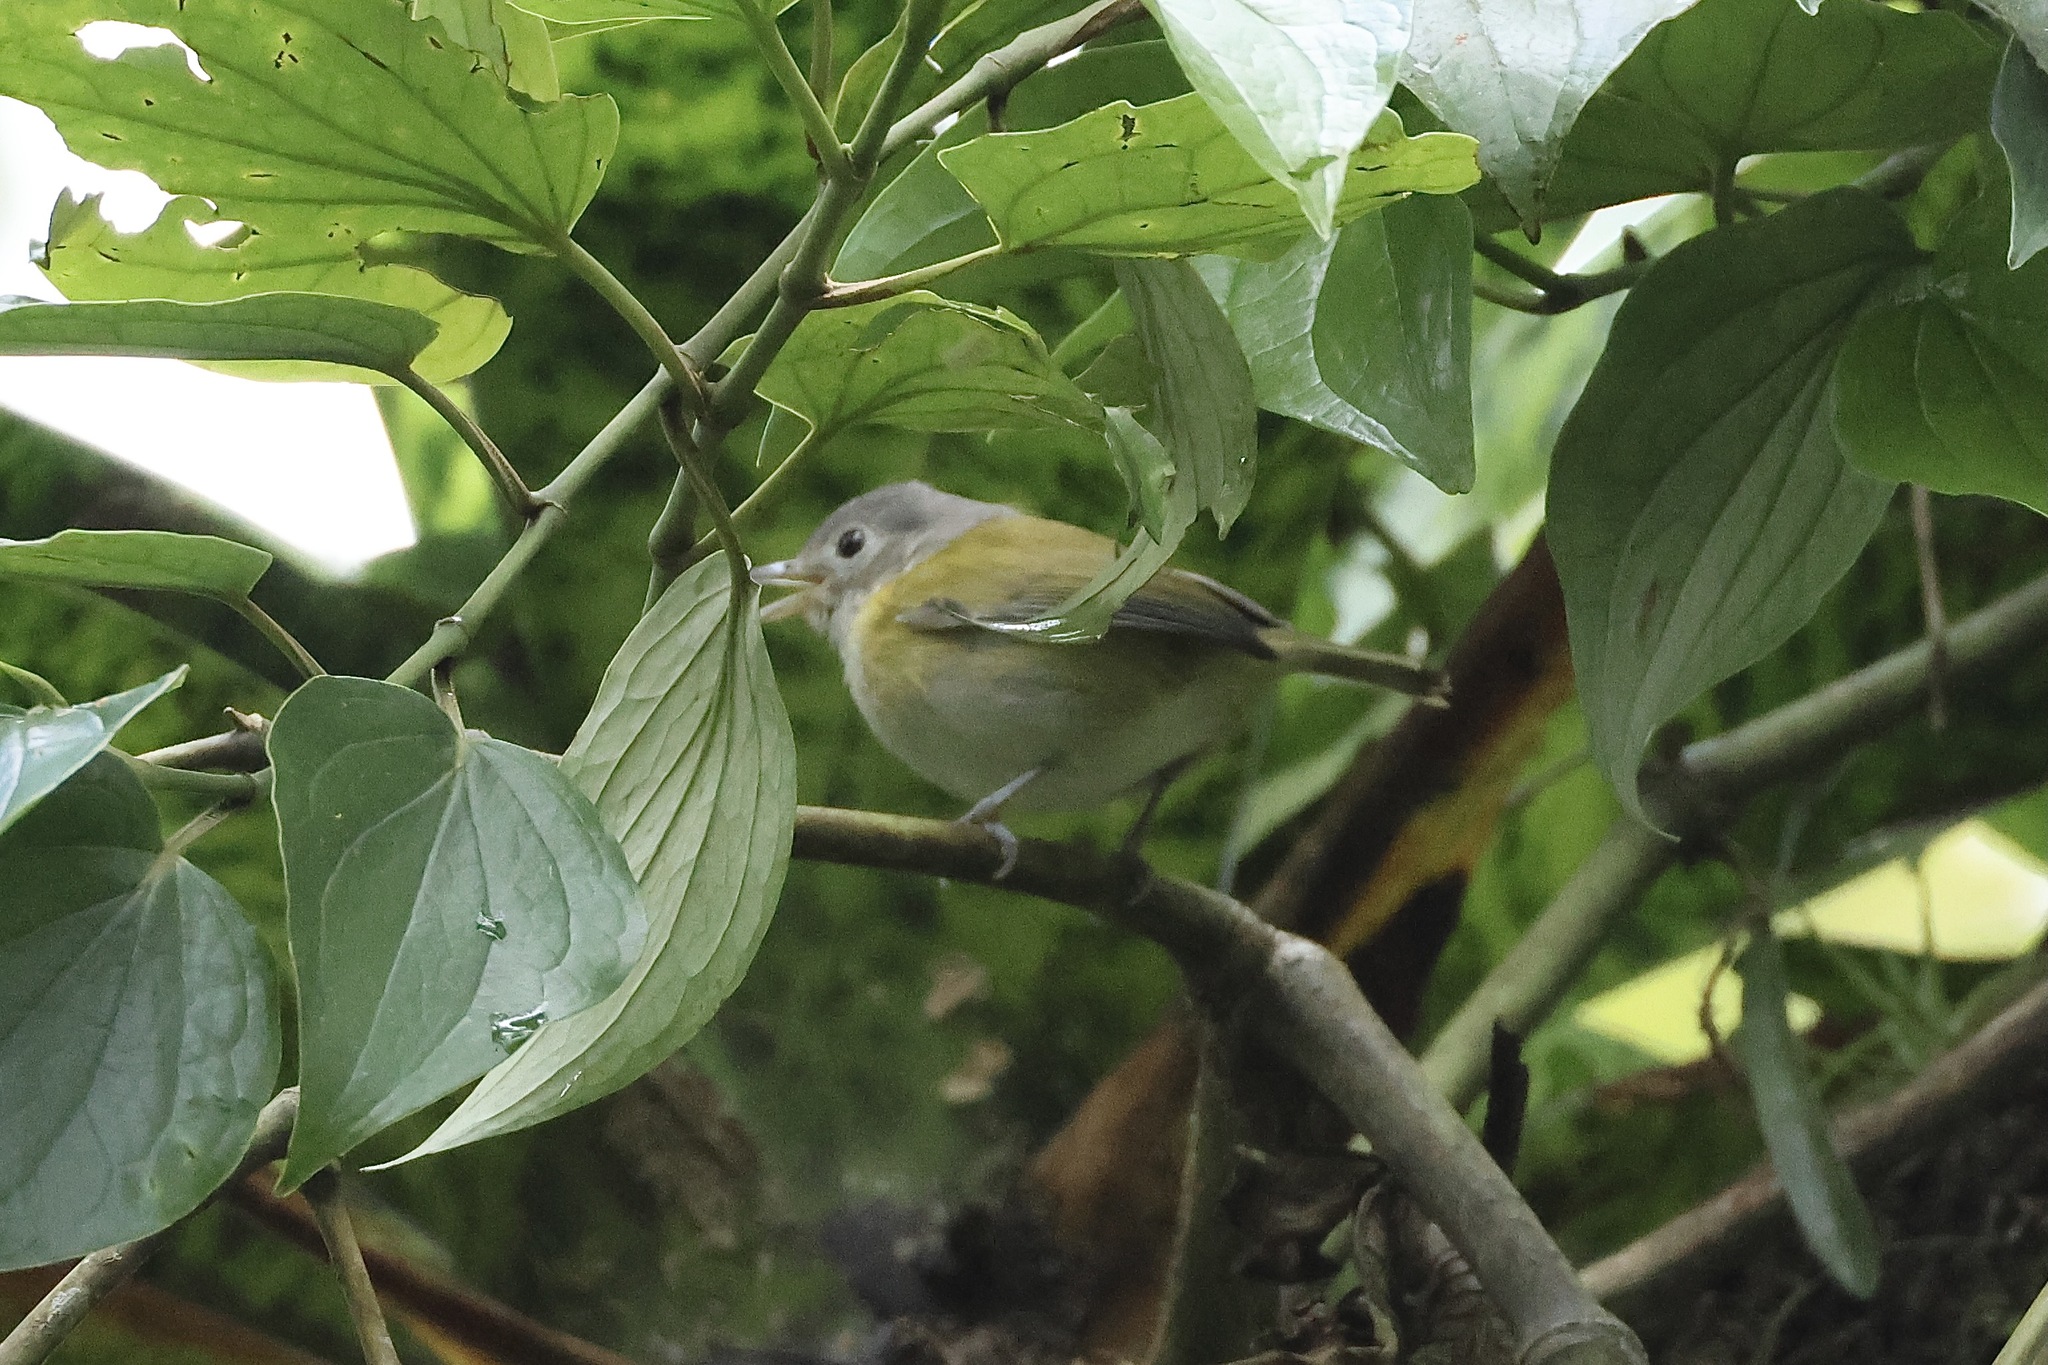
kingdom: Animalia
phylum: Chordata
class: Aves
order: Passeriformes
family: Vireonidae
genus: Hylophilus
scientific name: Hylophilus decurtatus
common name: Lesser greenlet
